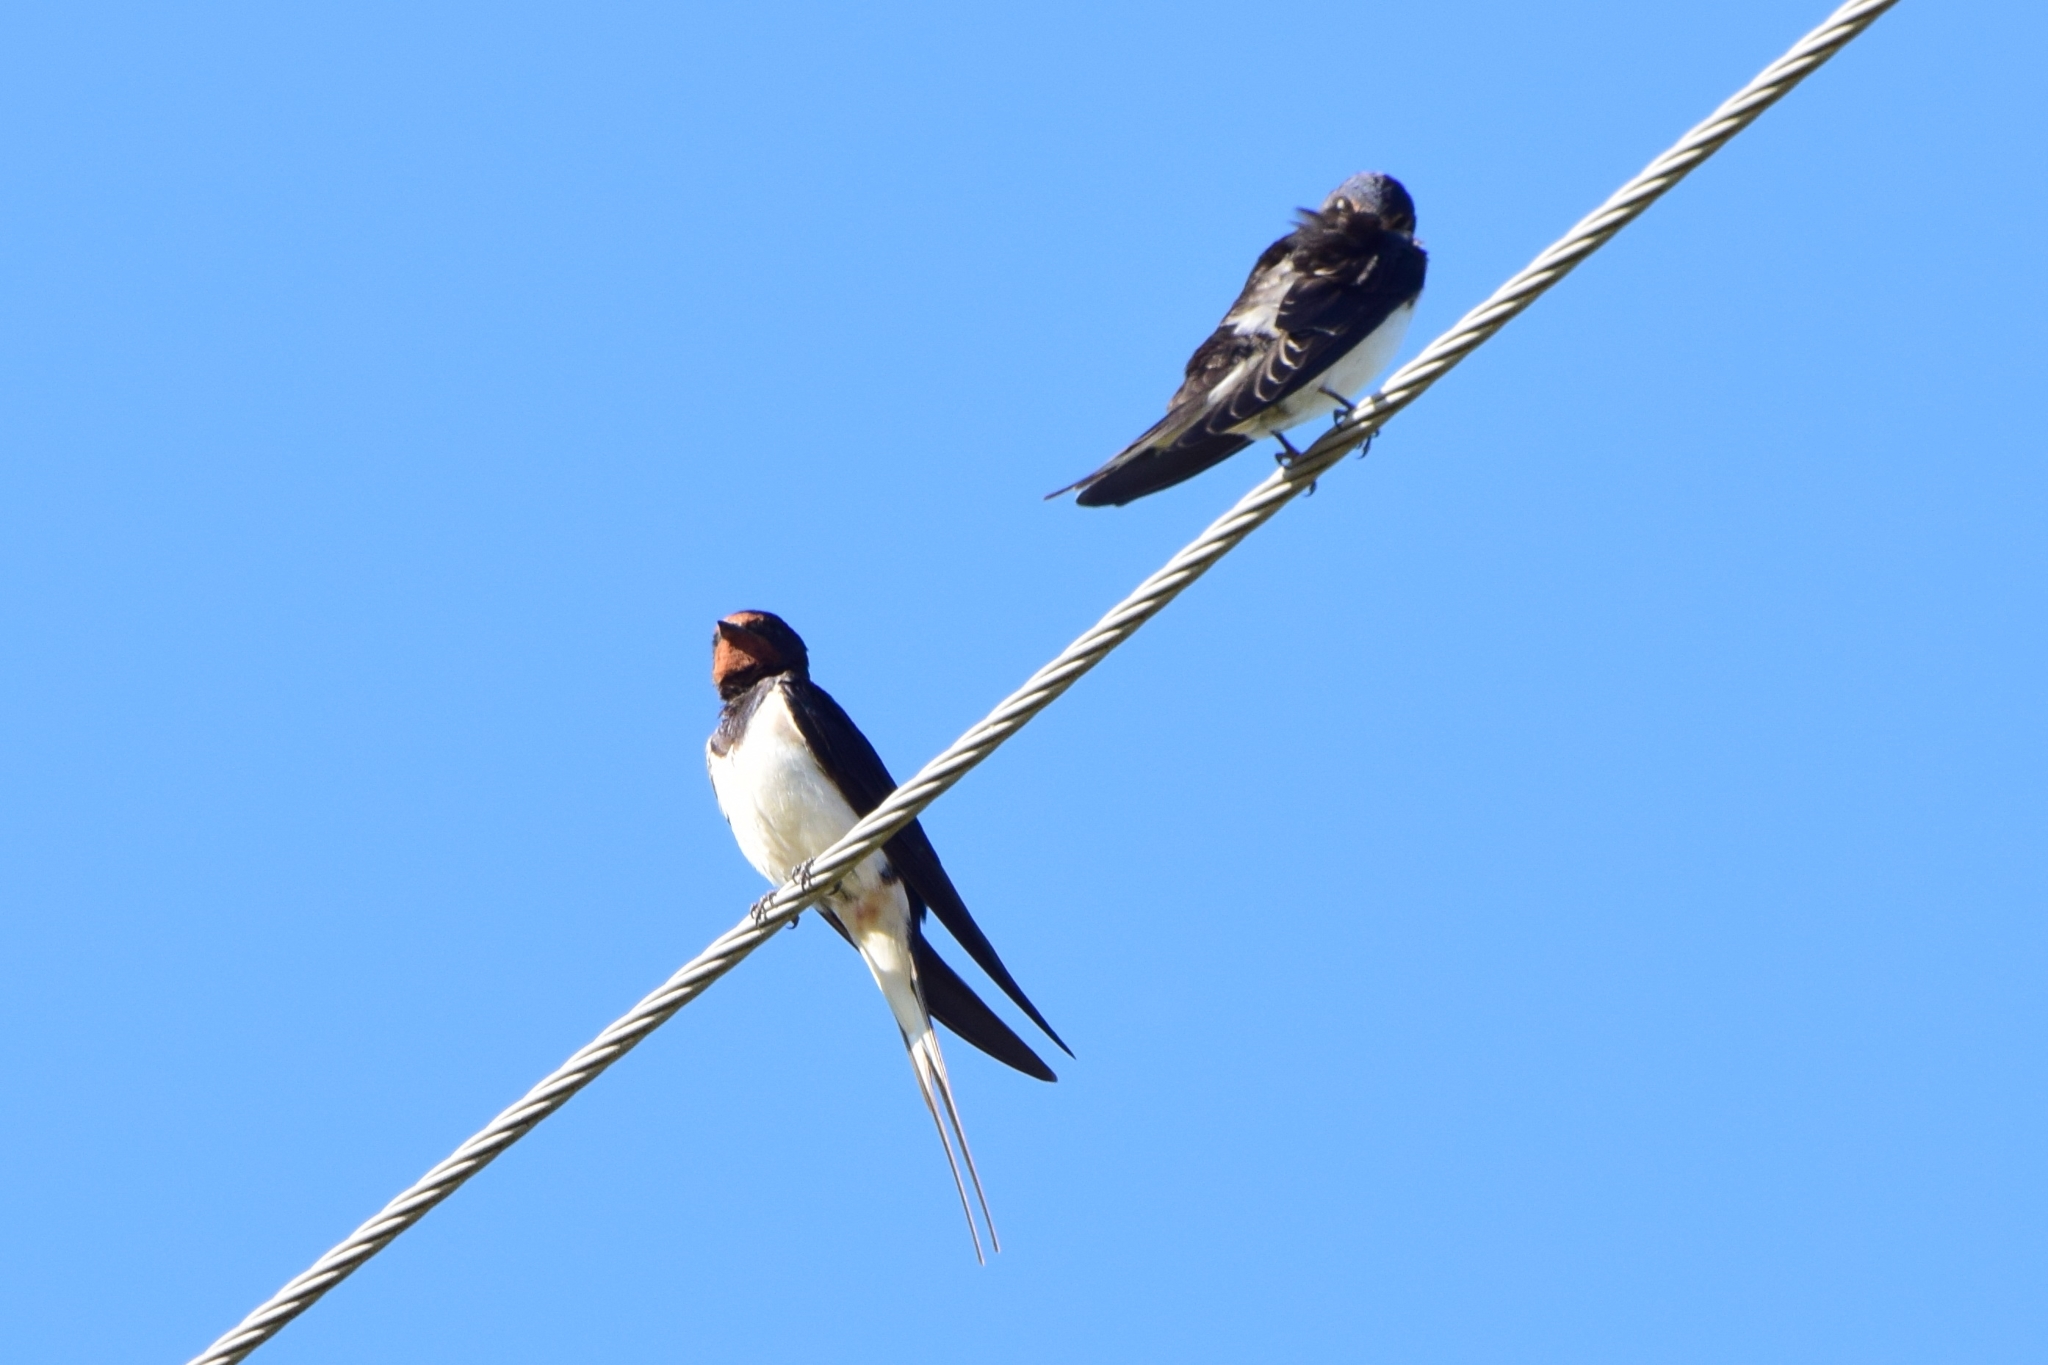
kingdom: Animalia
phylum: Chordata
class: Aves
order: Passeriformes
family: Hirundinidae
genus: Hirundo
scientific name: Hirundo rustica
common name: Barn swallow
